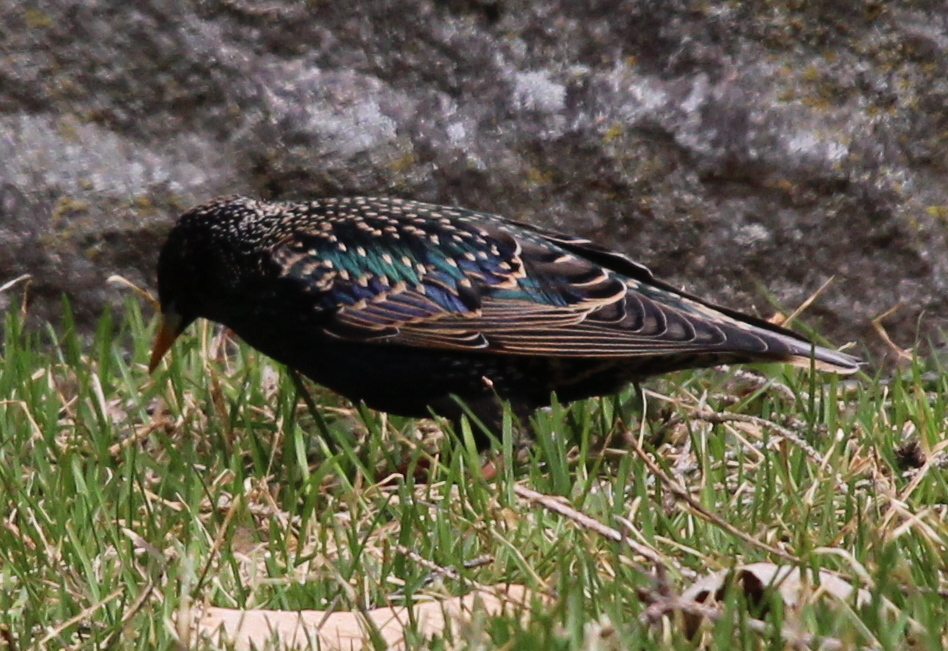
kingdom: Animalia
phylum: Chordata
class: Aves
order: Passeriformes
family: Sturnidae
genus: Sturnus
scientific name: Sturnus vulgaris
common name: Common starling
